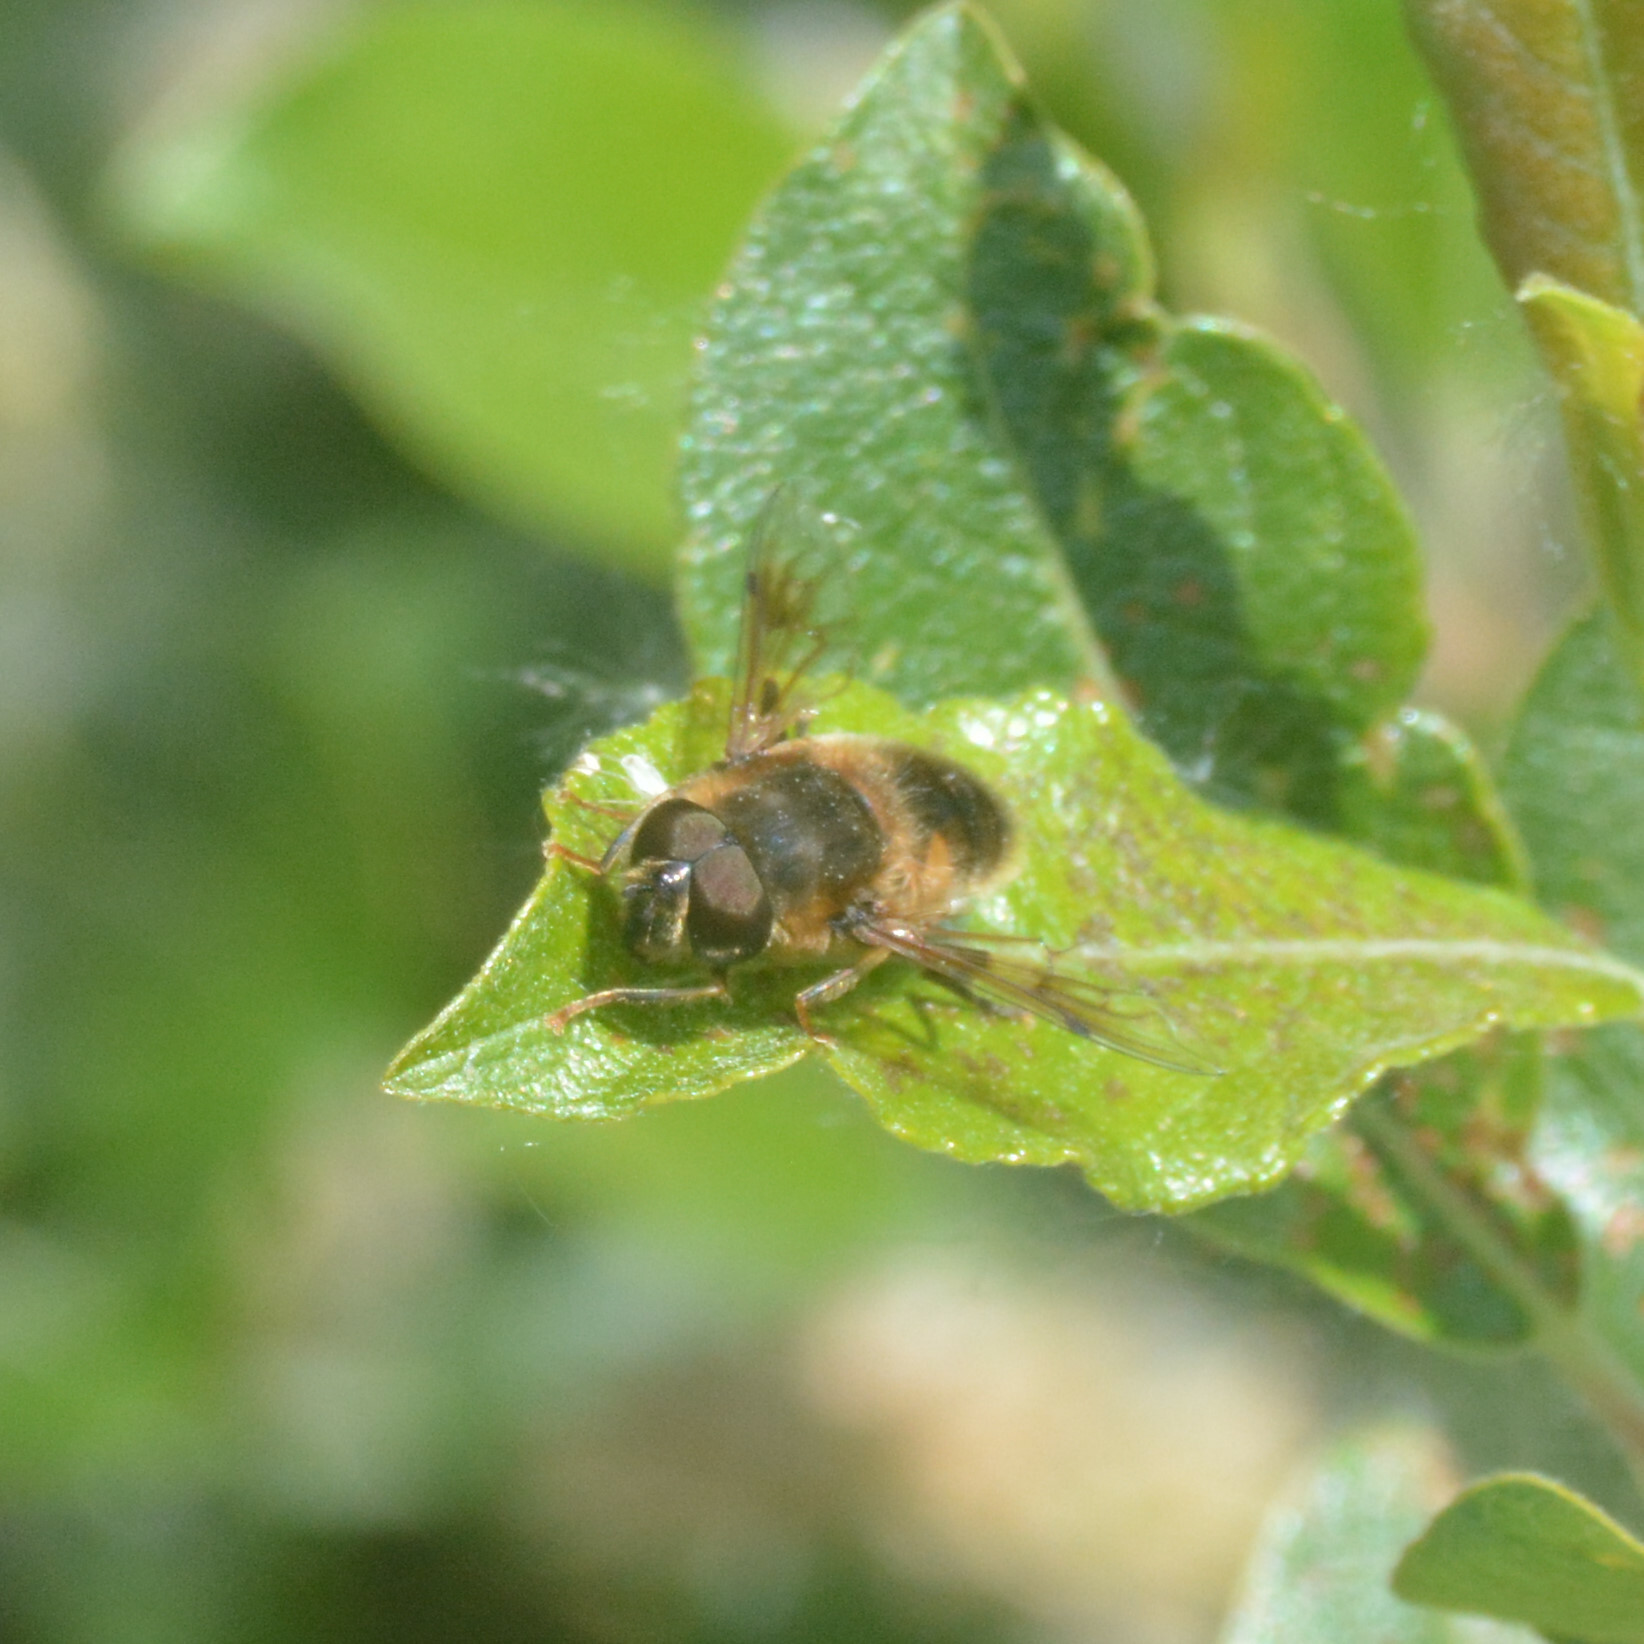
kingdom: Animalia
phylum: Arthropoda
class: Insecta
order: Diptera
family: Syrphidae
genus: Eristalis
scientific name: Eristalis pertinax
